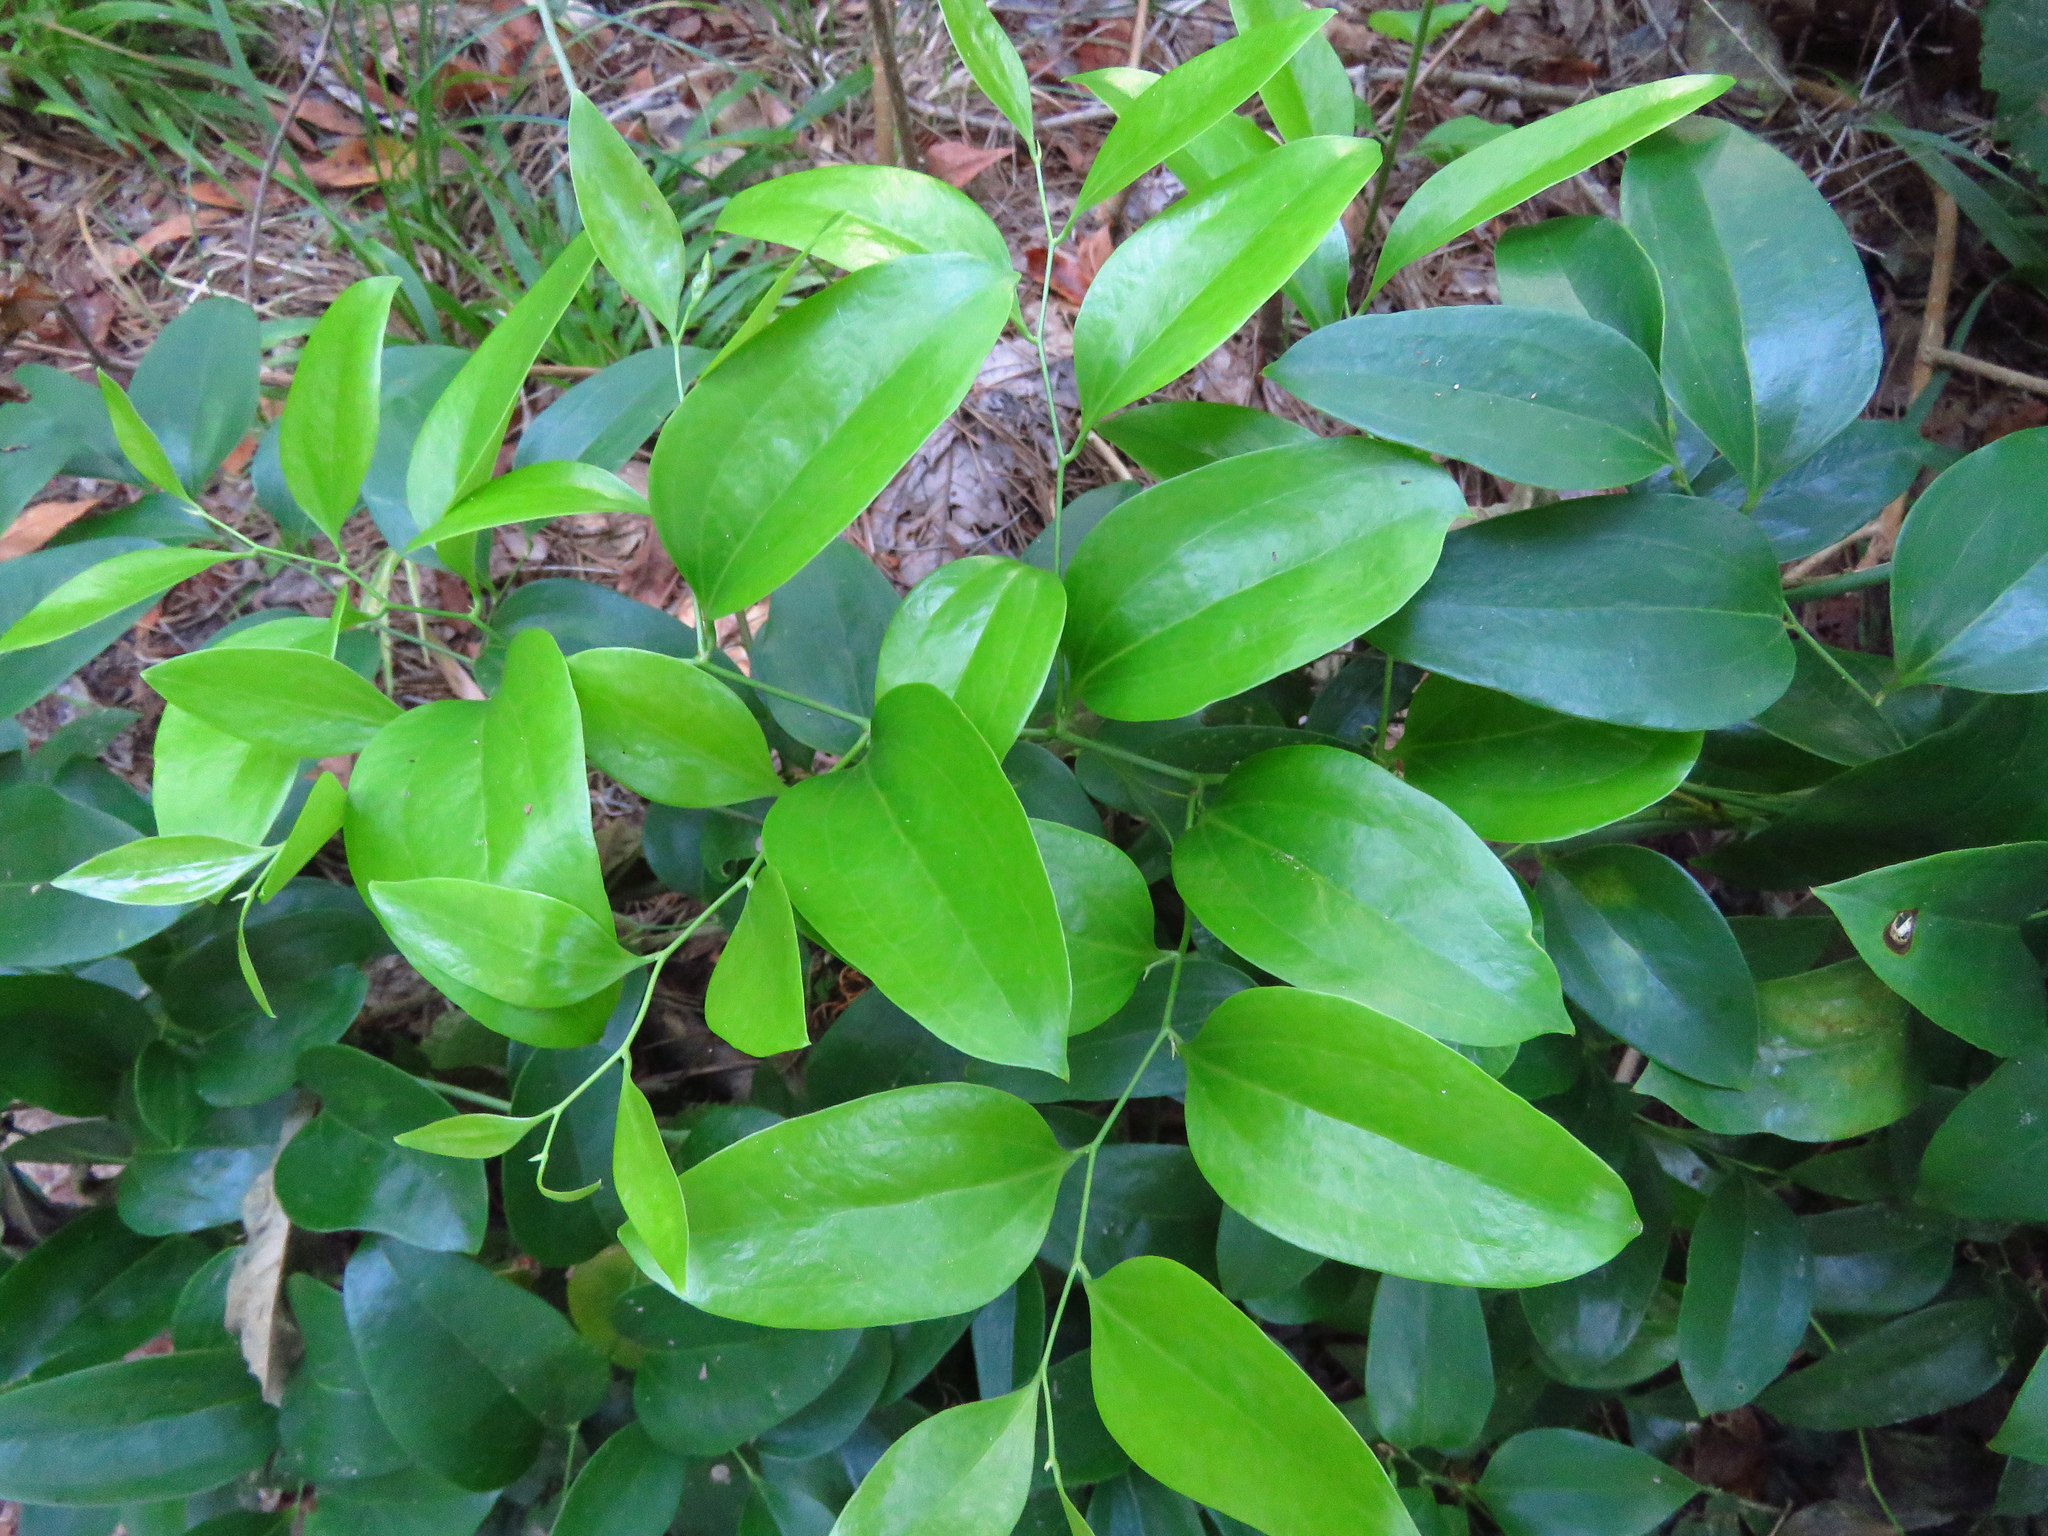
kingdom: Plantae
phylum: Tracheophyta
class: Liliopsida
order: Liliales
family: Smilacaceae
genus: Smilax
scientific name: Smilax maritima
